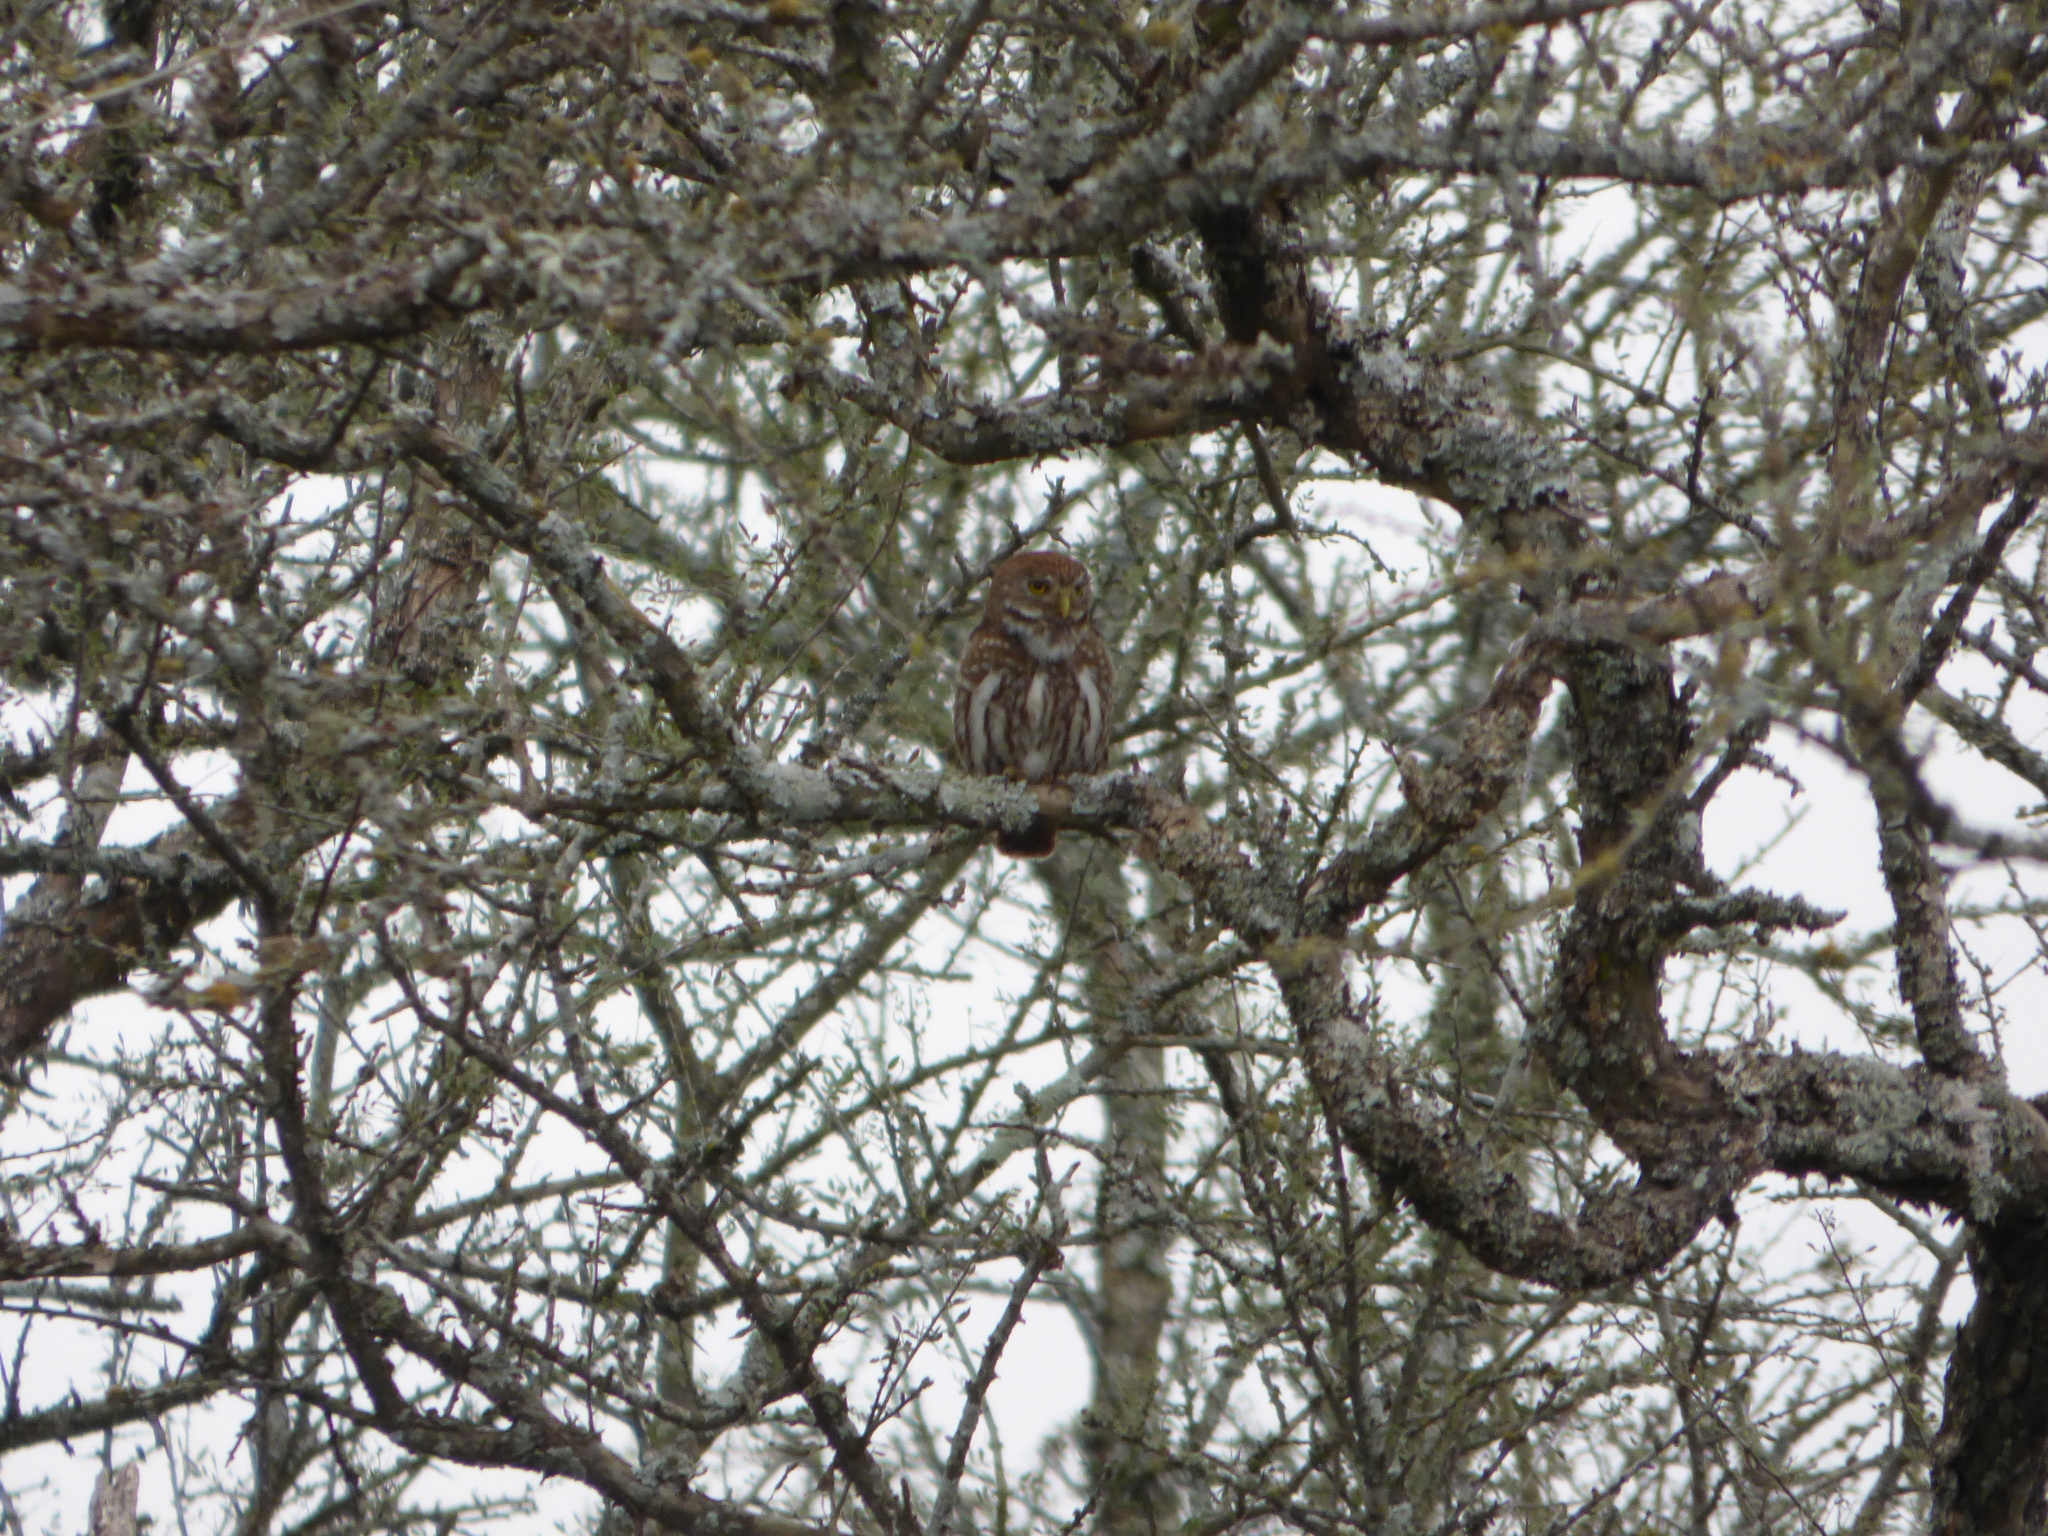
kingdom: Animalia
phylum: Chordata
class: Aves
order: Strigiformes
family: Strigidae
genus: Glaucidium
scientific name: Glaucidium brasilianum
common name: Ferruginous pygmy-owl
